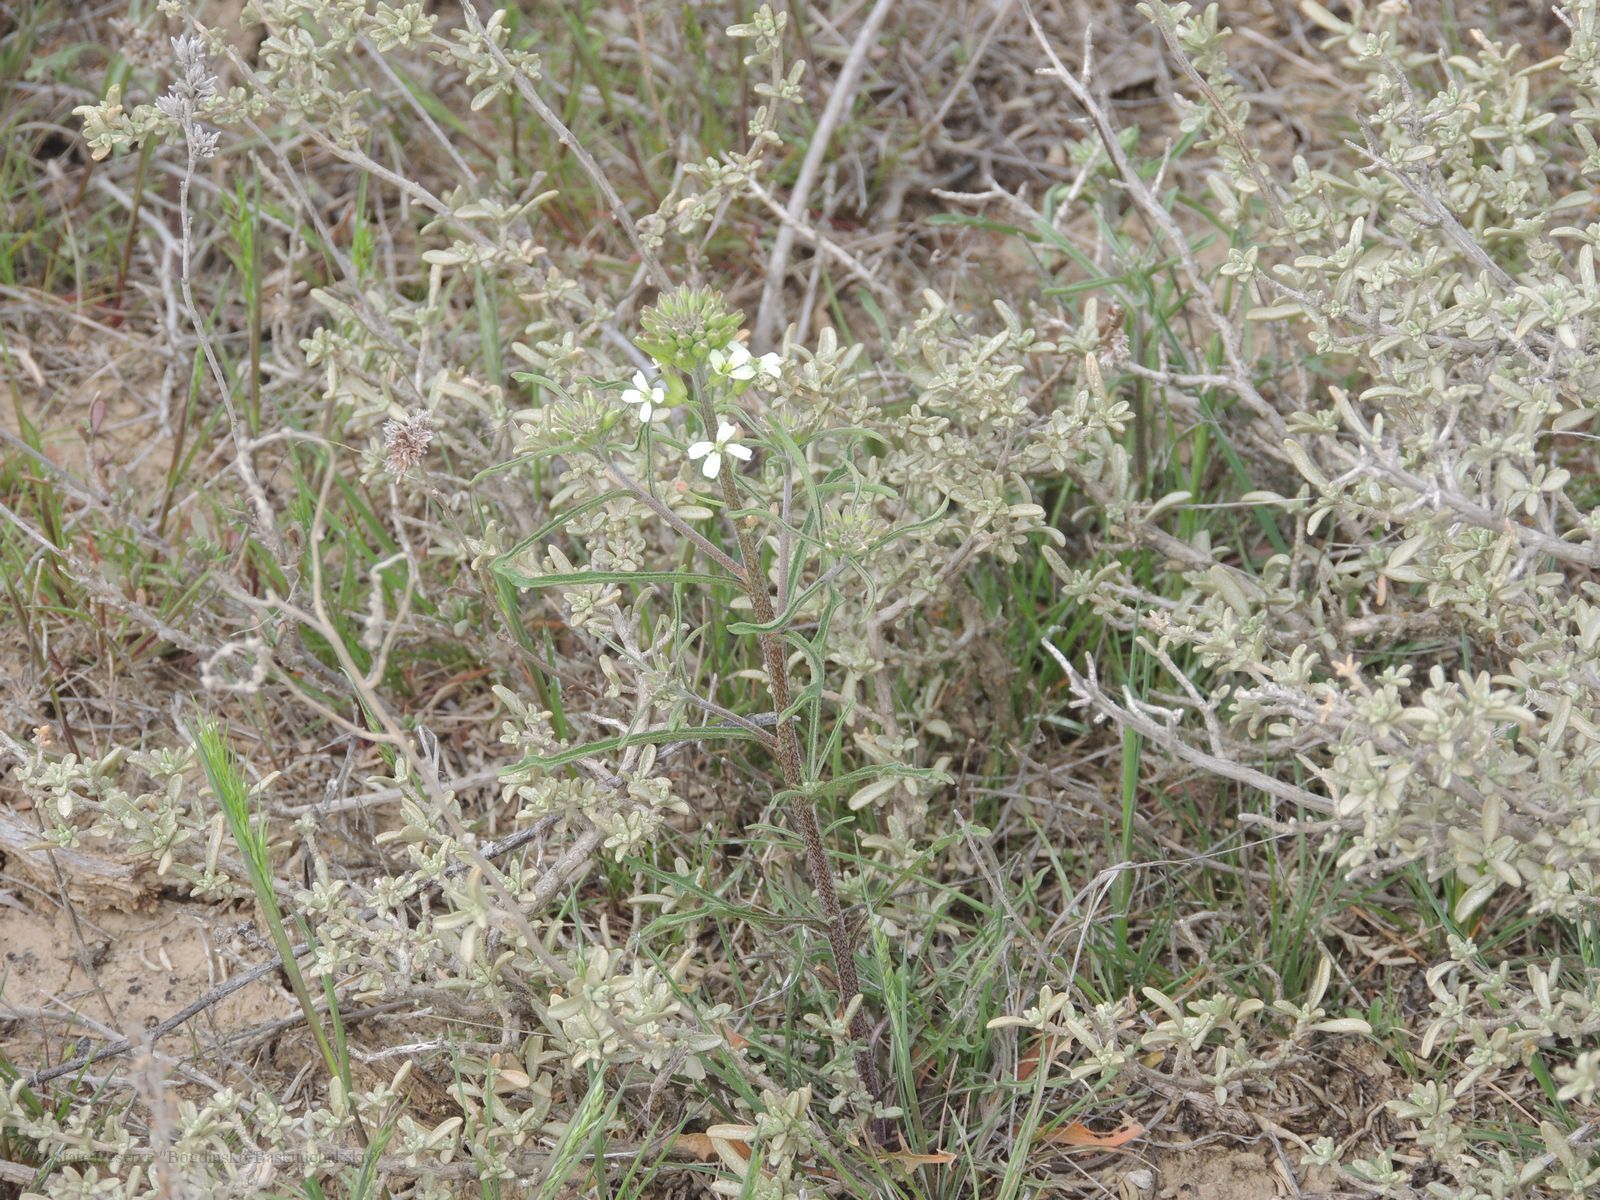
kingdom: Plantae
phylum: Tracheophyta
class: Magnoliopsida
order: Brassicales
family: Brassicaceae
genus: Erysimum
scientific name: Erysimum leucanthemum
